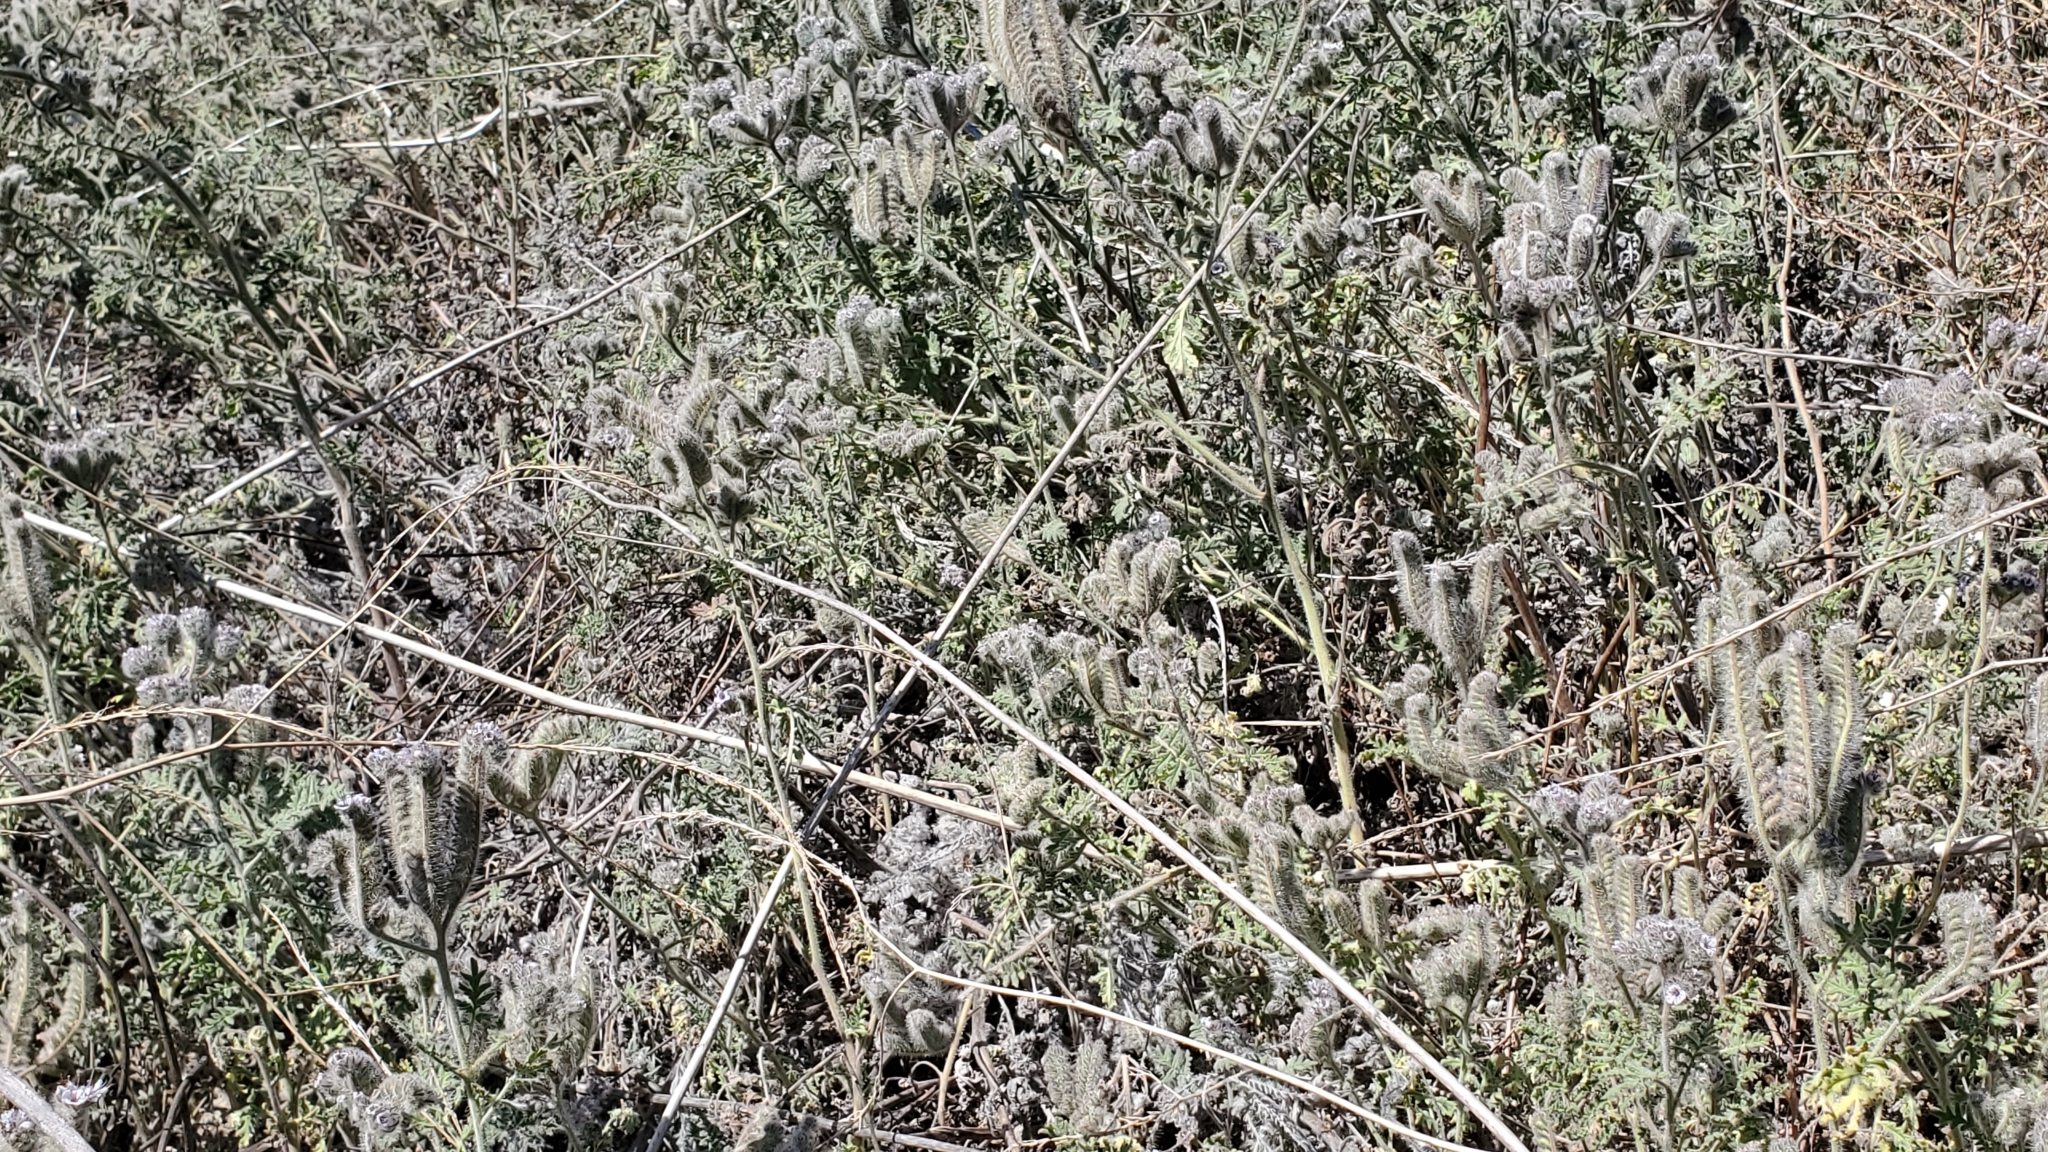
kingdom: Plantae
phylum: Tracheophyta
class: Magnoliopsida
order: Boraginales
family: Hydrophyllaceae
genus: Phacelia
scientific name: Phacelia hubbyi
